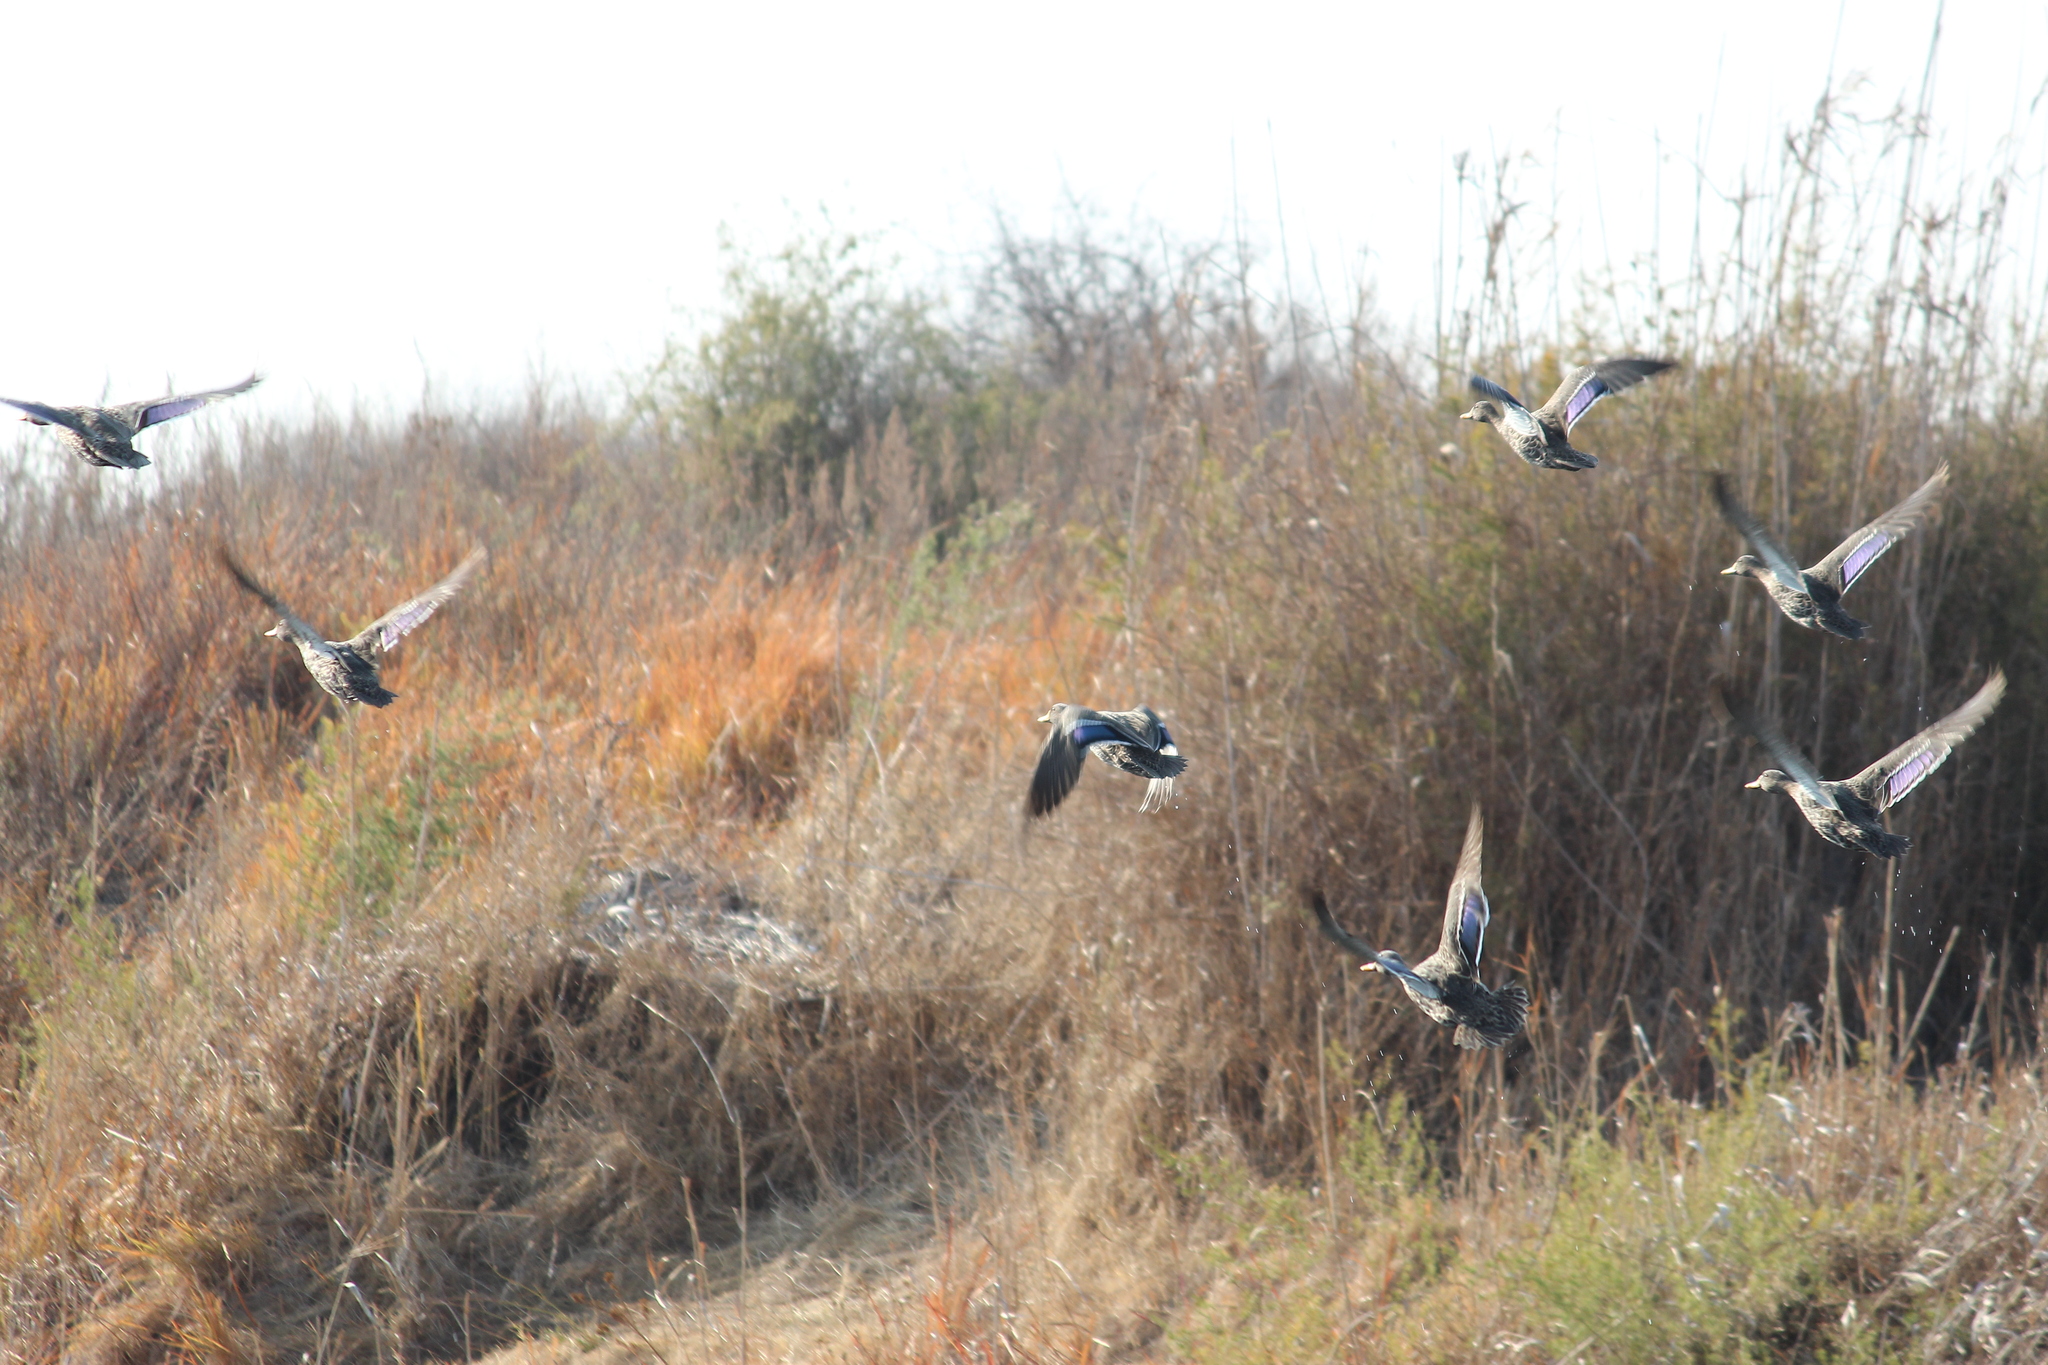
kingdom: Animalia
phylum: Chordata
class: Aves
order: Anseriformes
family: Anatidae
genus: Anas
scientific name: Anas undulata
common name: Yellow-billed duck
